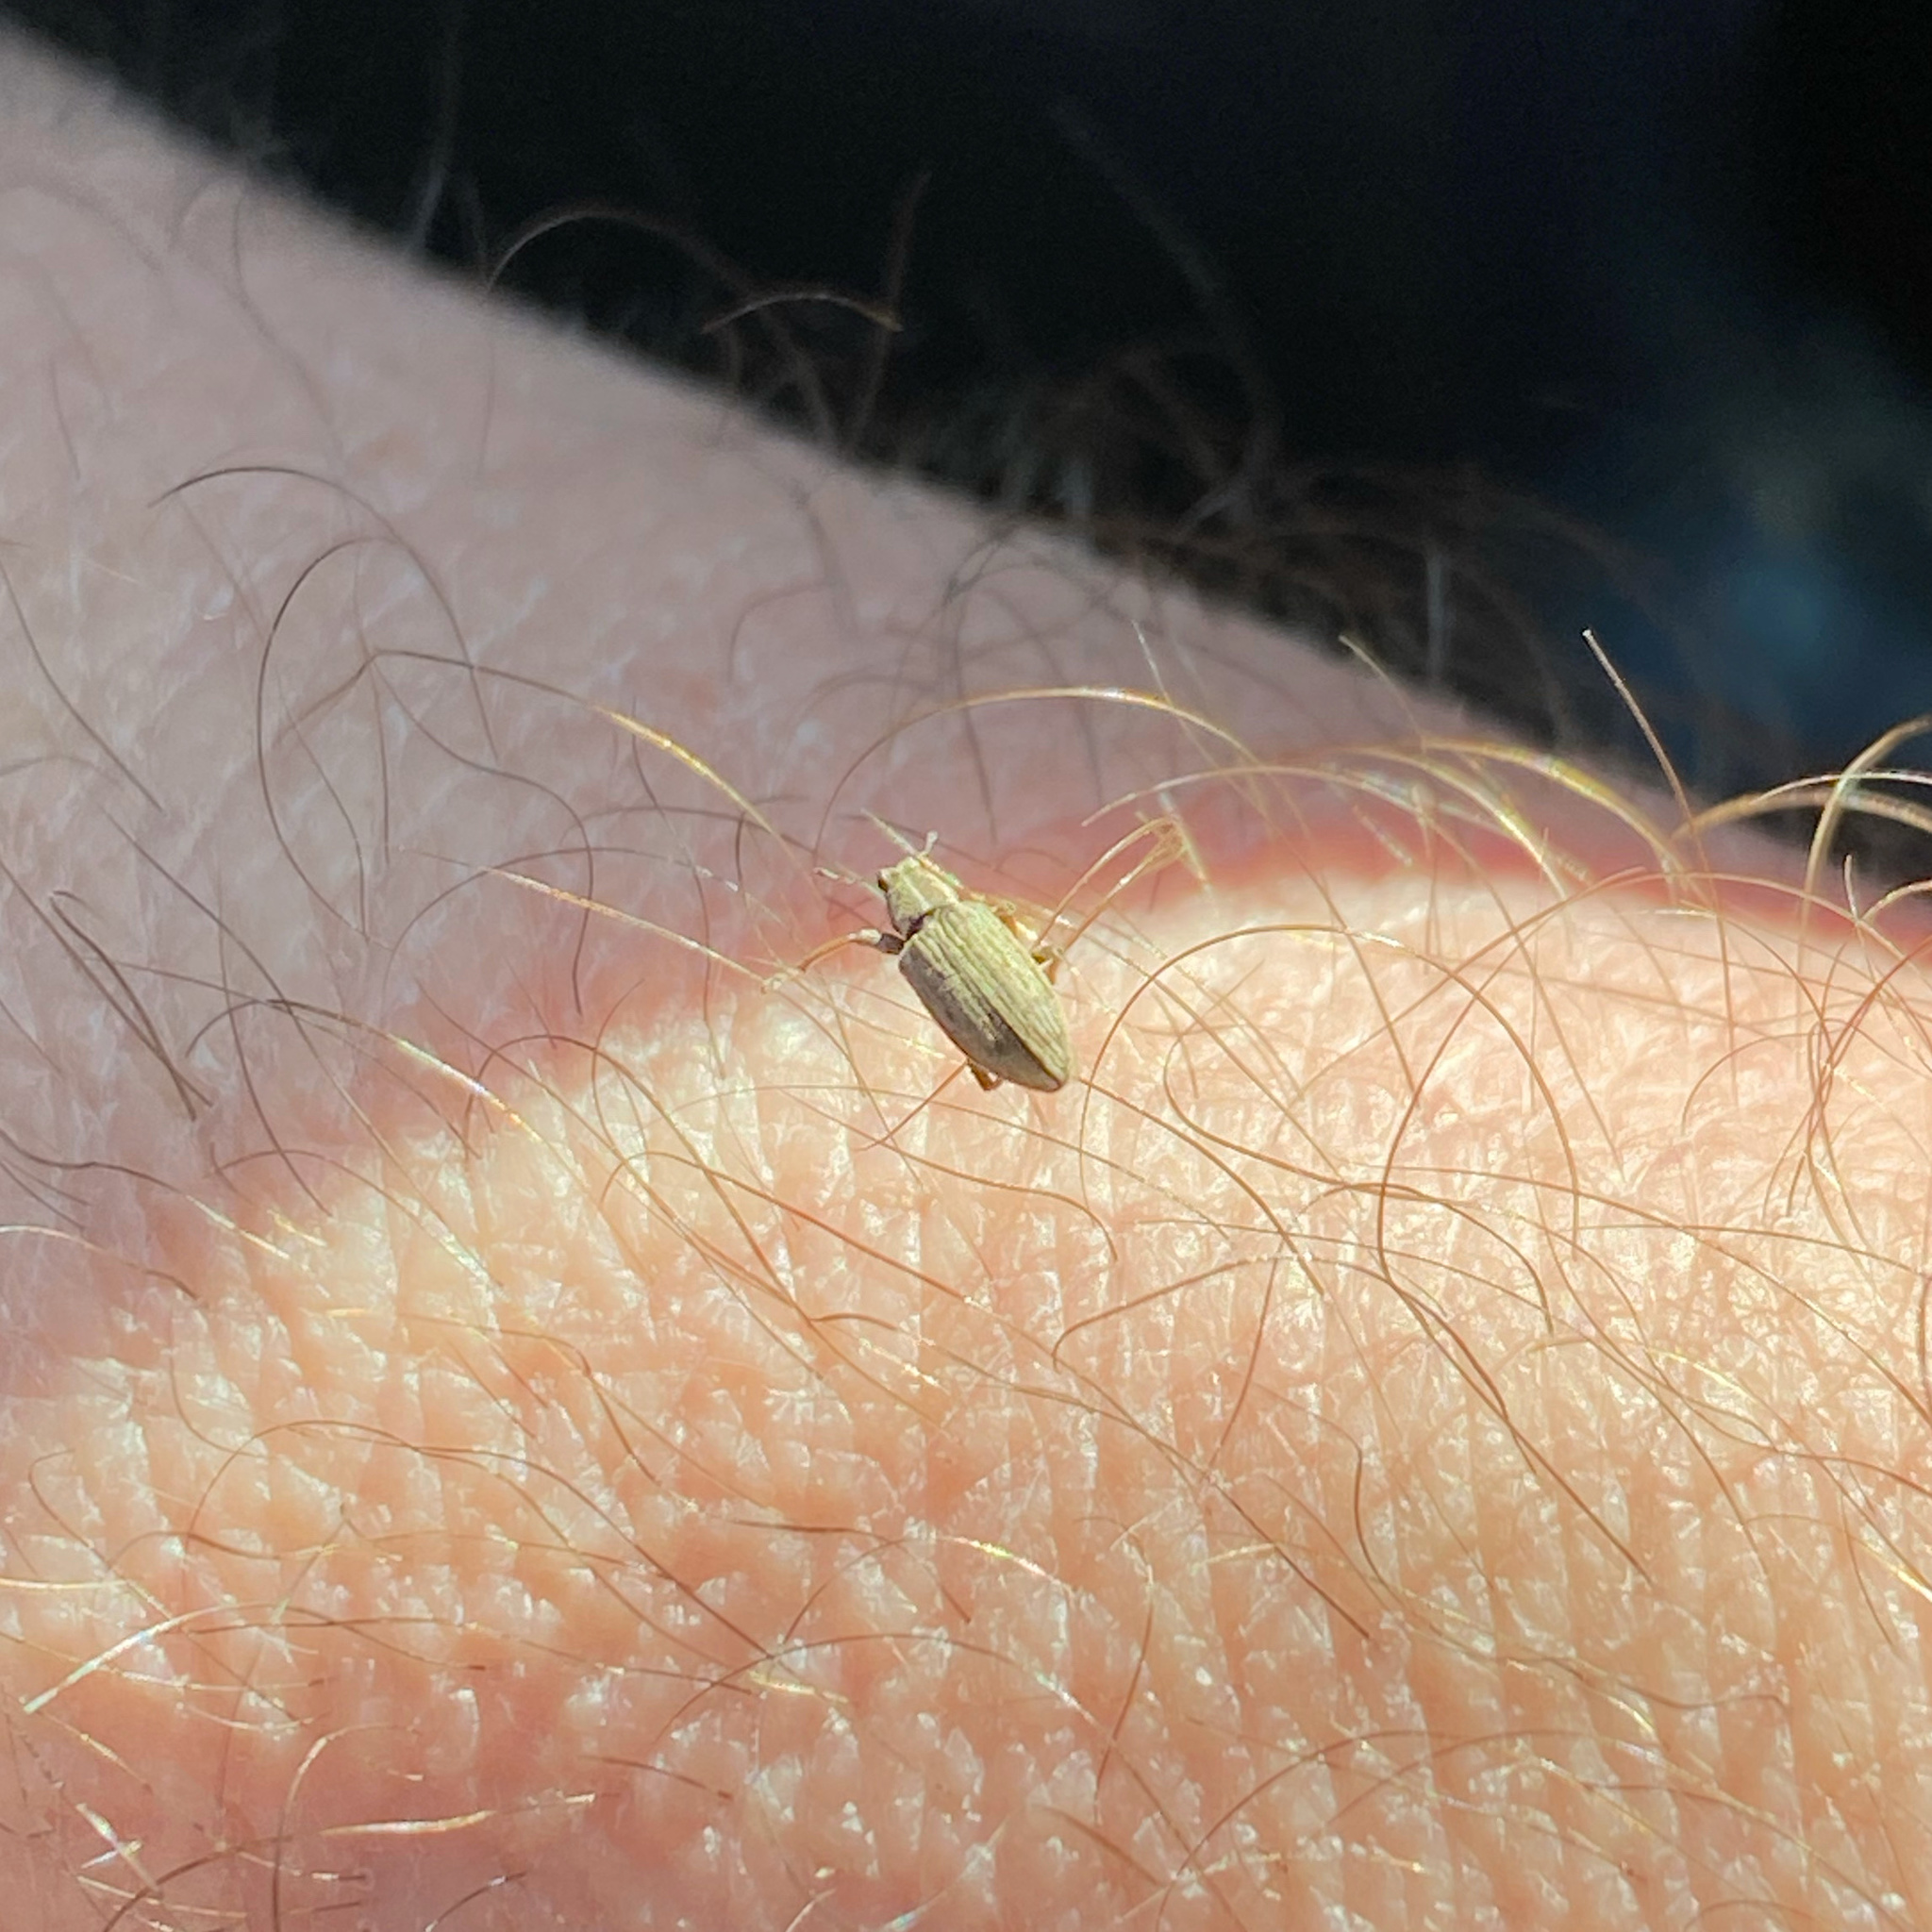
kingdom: Animalia
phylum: Arthropoda
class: Insecta
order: Coleoptera
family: Curculionidae
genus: Sitona
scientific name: Sitona discoideus
